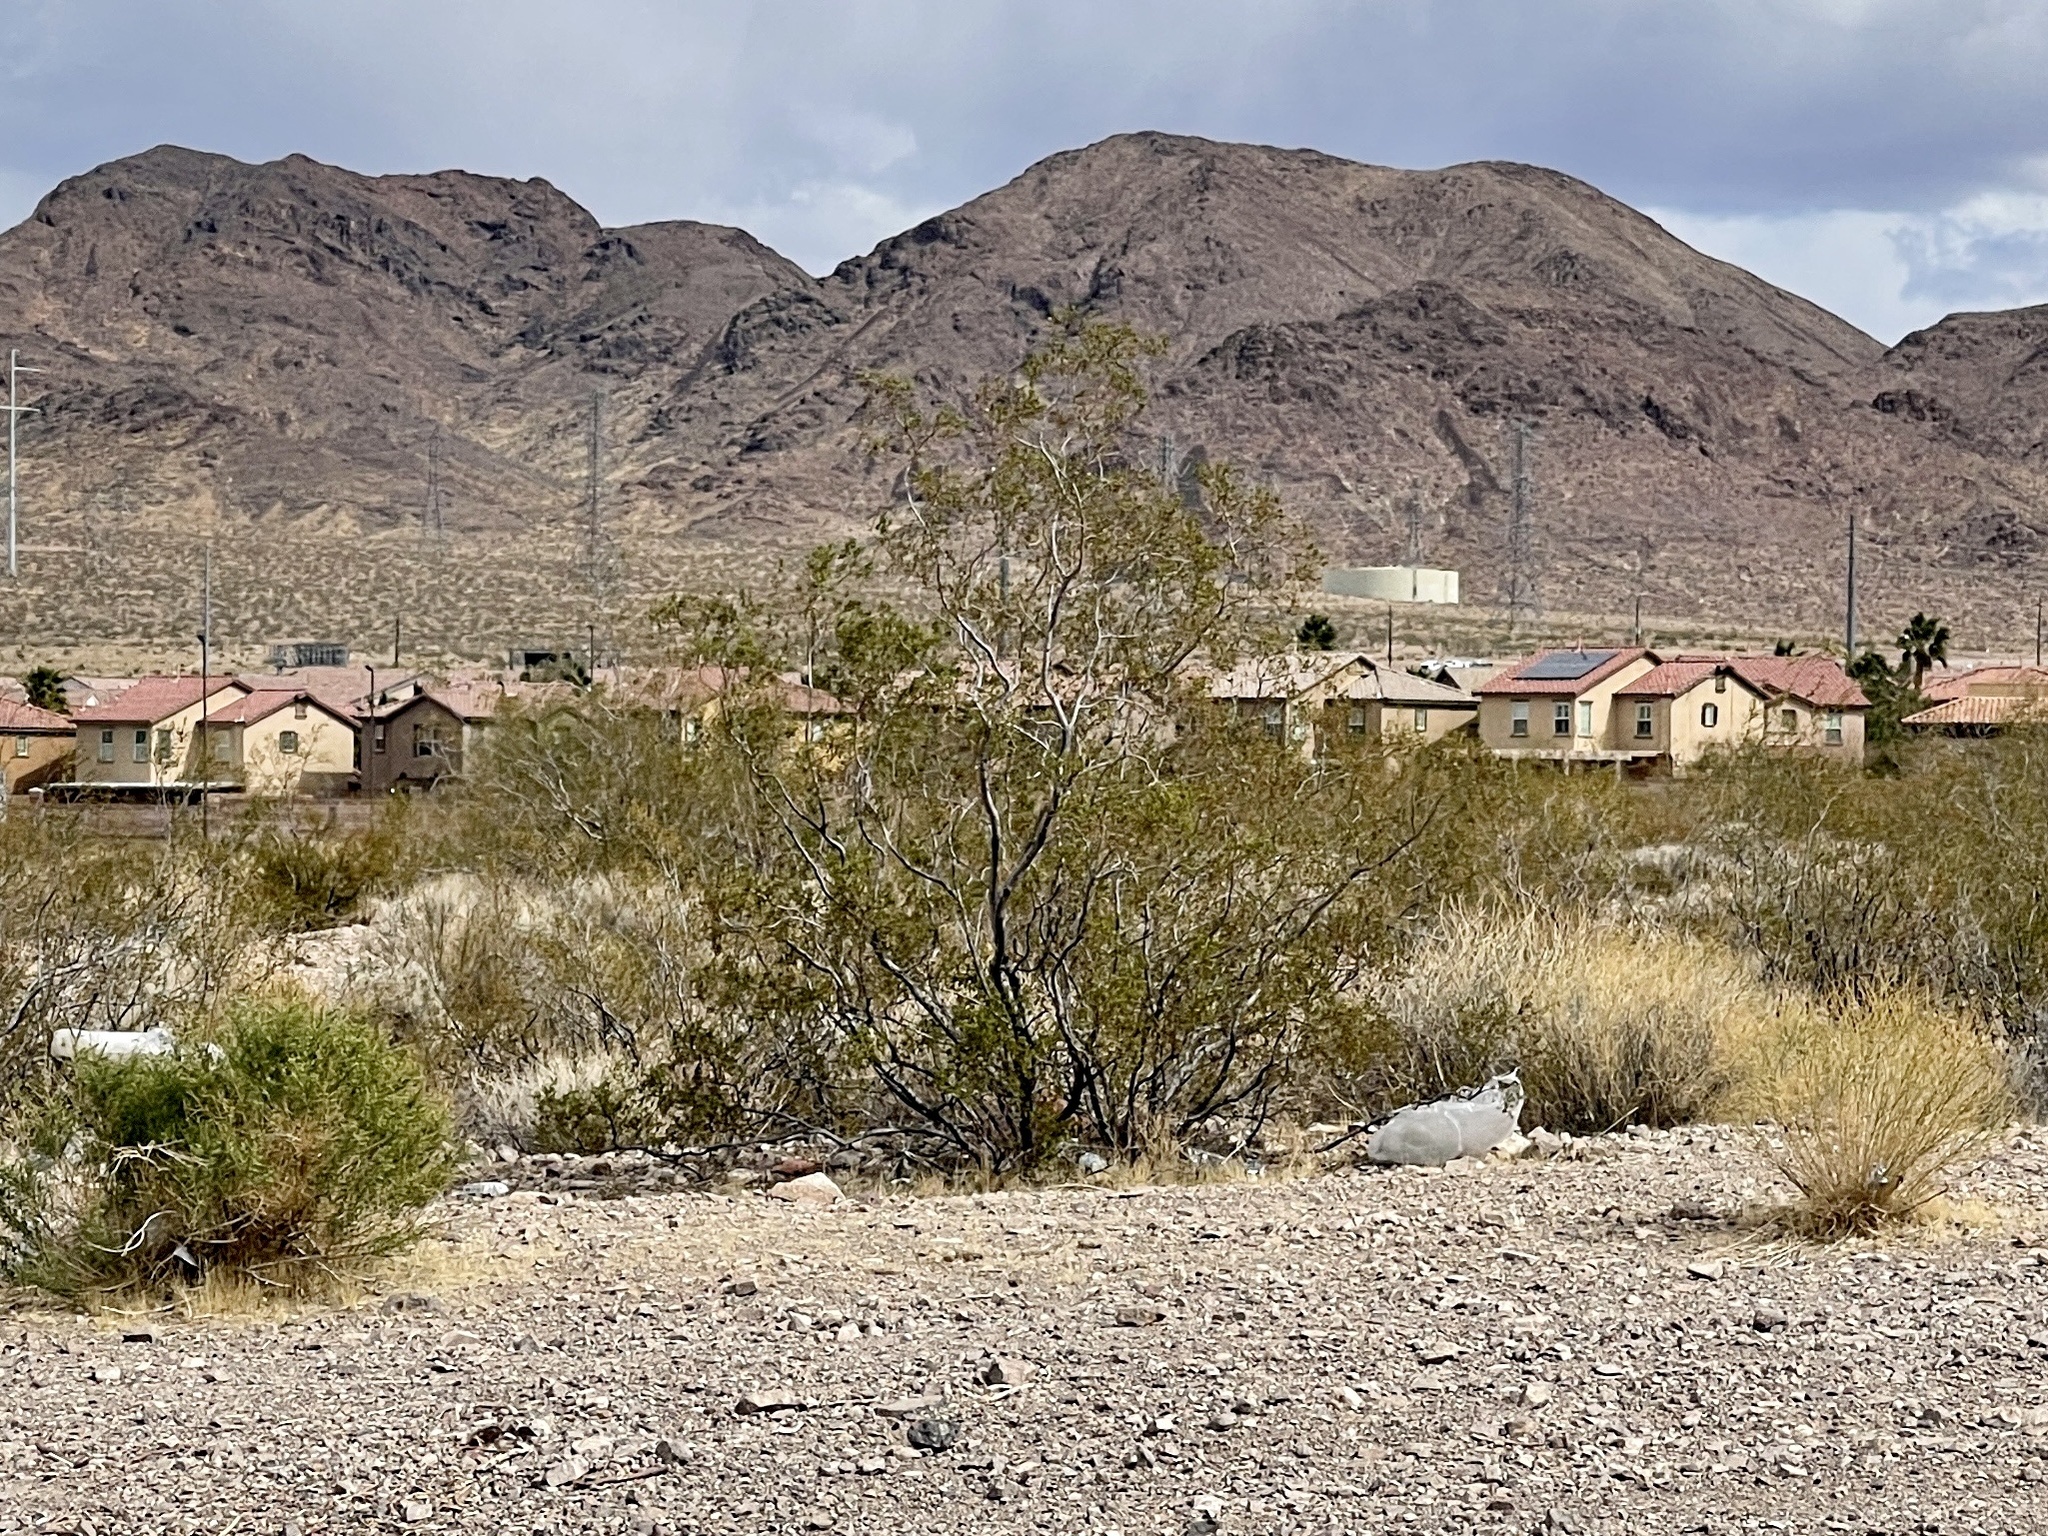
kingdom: Plantae
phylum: Tracheophyta
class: Magnoliopsida
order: Zygophyllales
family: Zygophyllaceae
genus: Larrea
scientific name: Larrea tridentata
